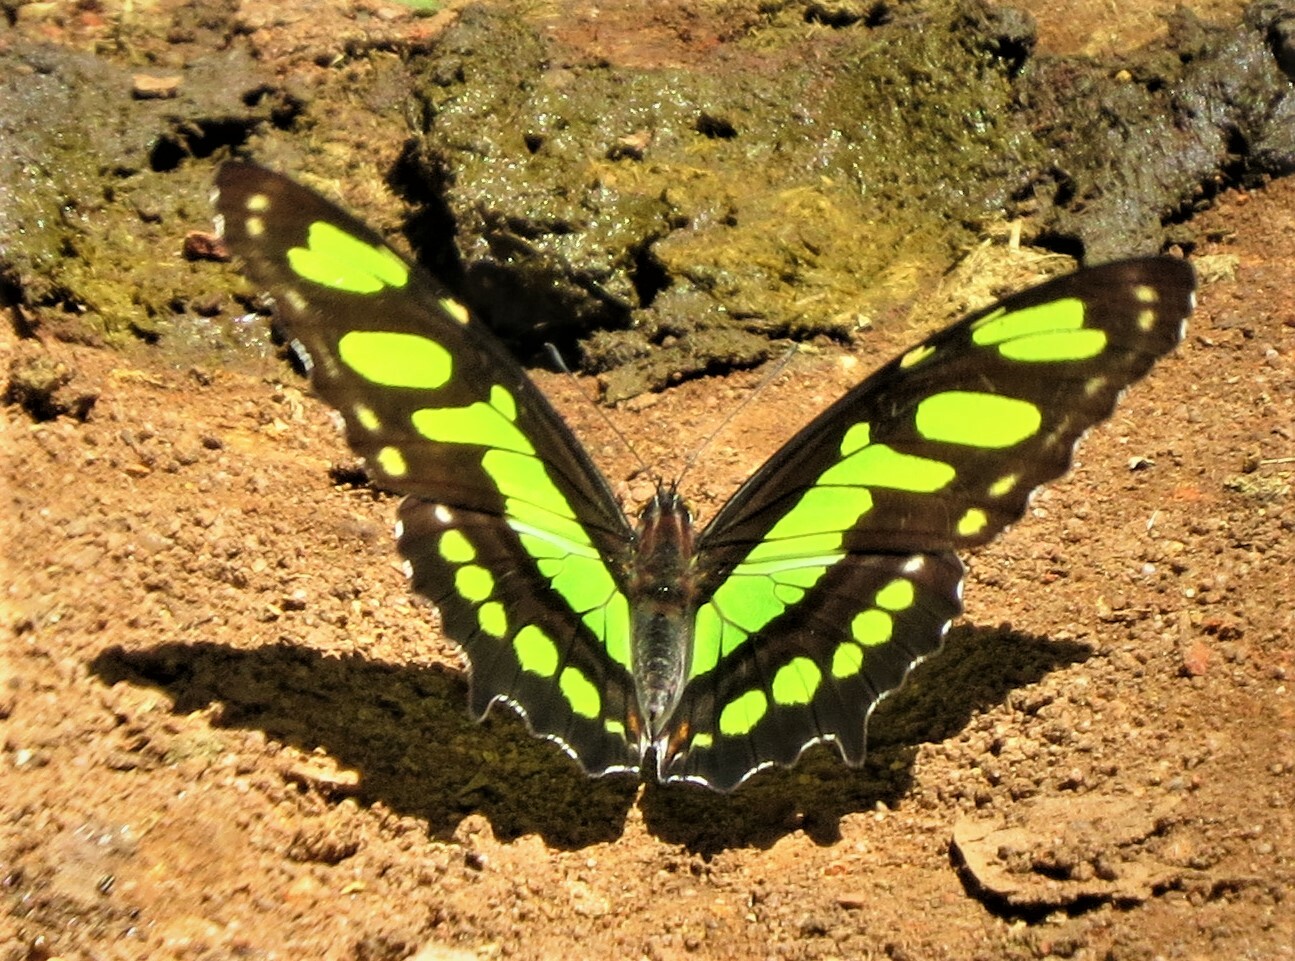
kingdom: Animalia
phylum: Arthropoda
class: Insecta
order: Lepidoptera
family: Nymphalidae
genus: Siproeta
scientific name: Siproeta stelenes
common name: Malachite
